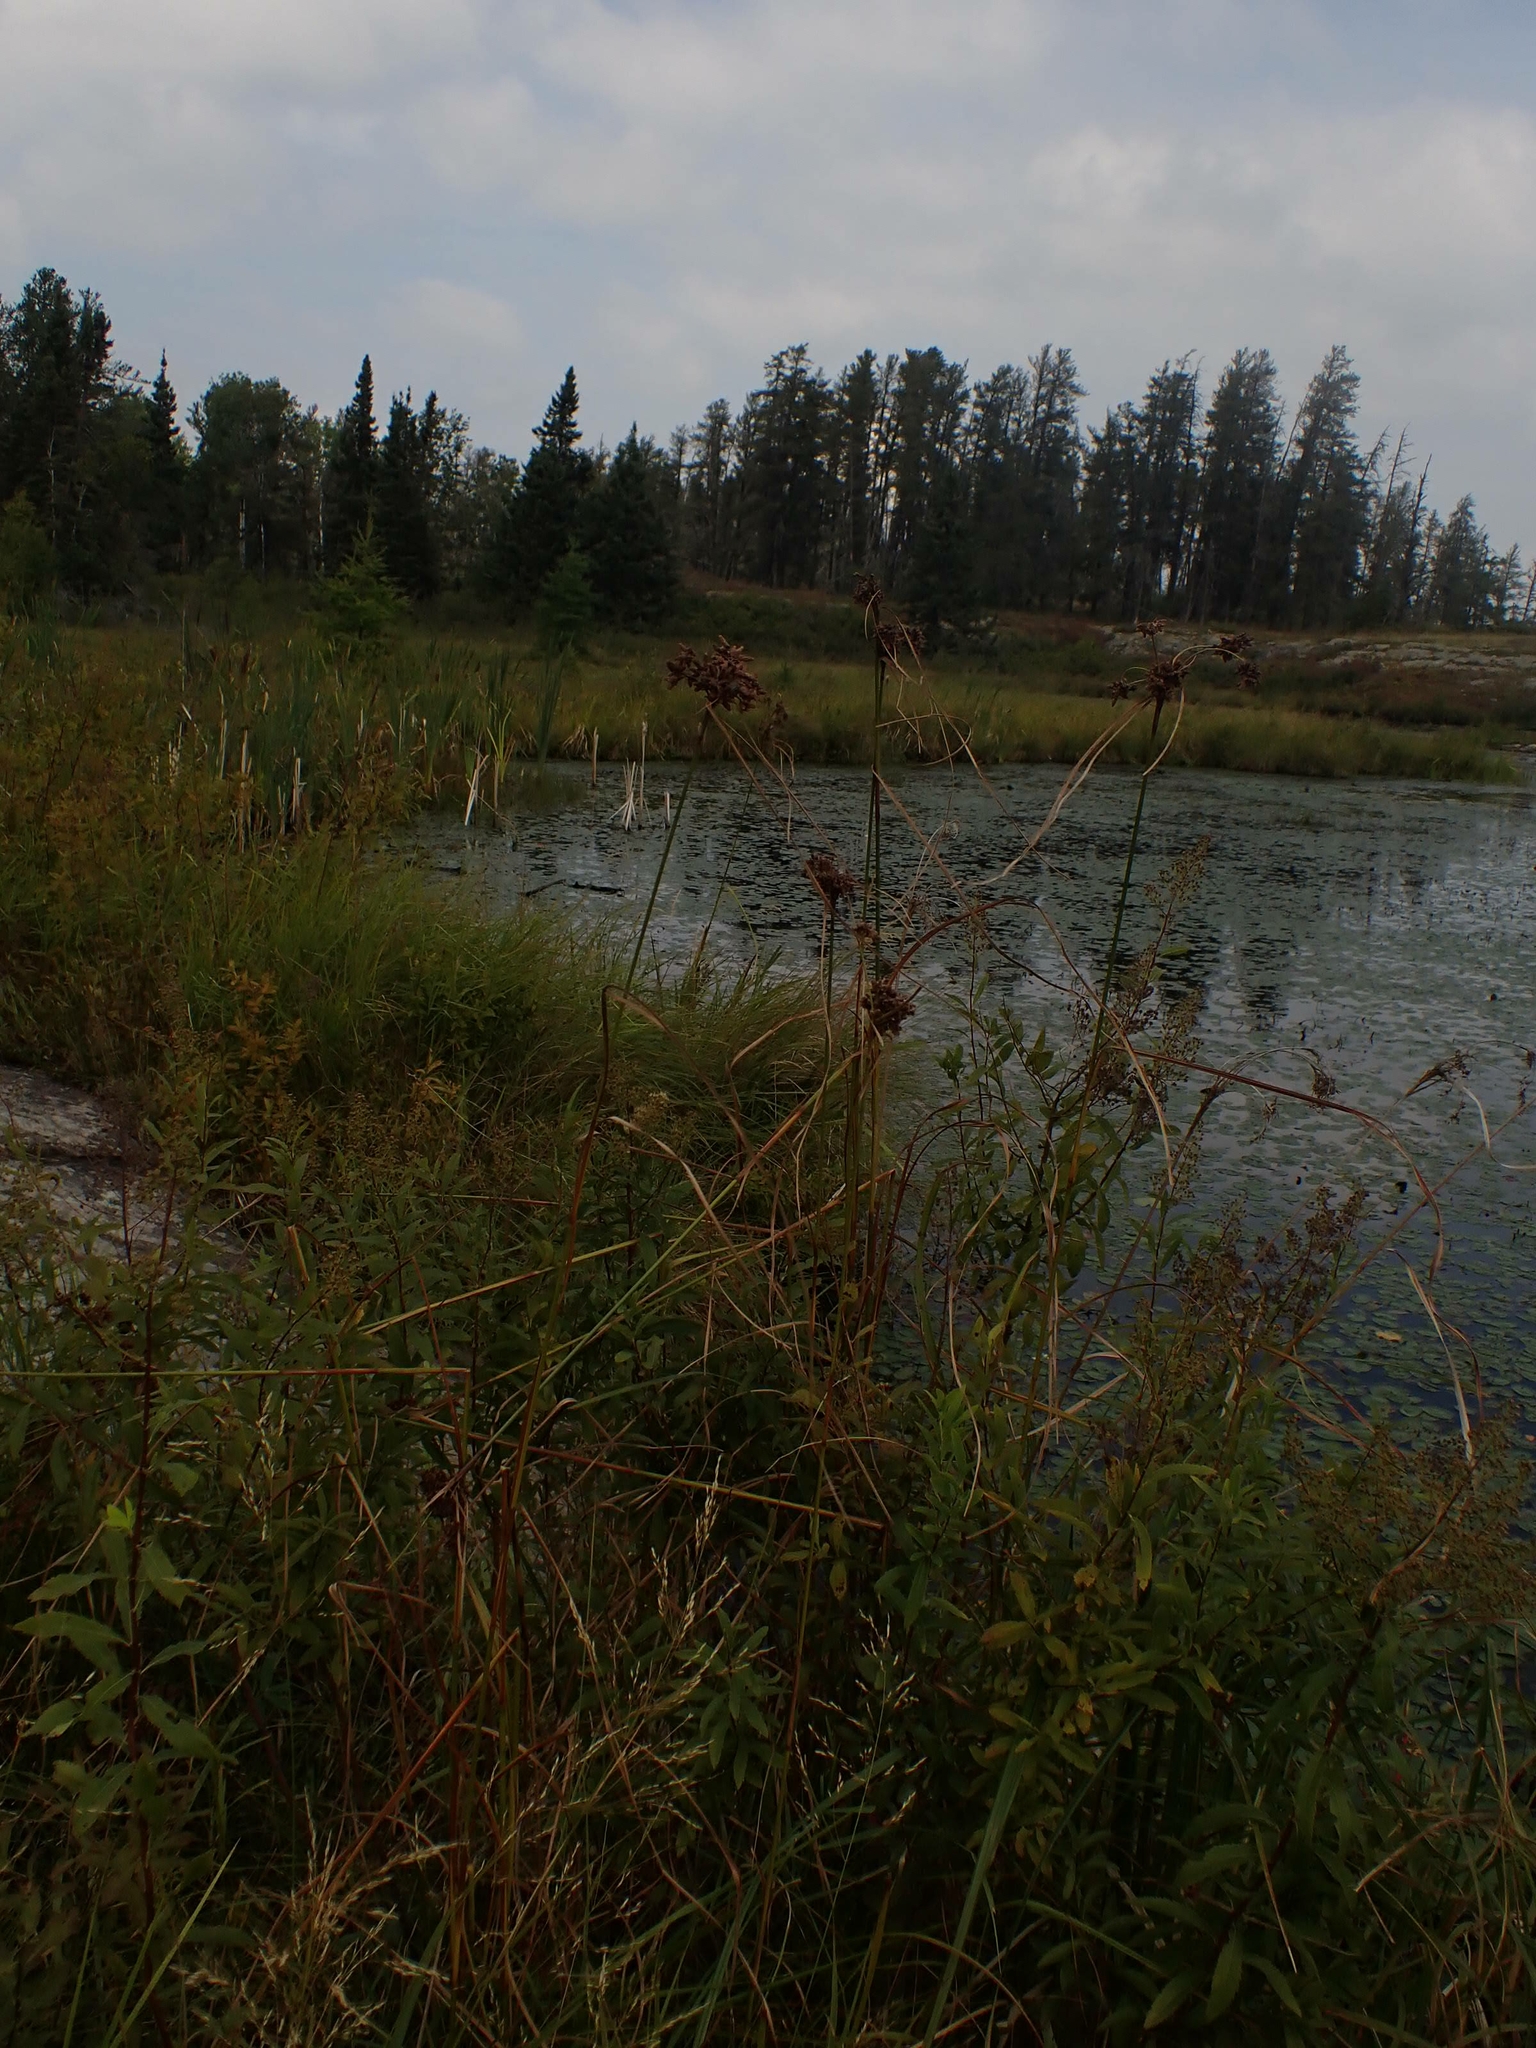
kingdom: Plantae
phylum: Tracheophyta
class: Liliopsida
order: Poales
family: Cyperaceae
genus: Scirpus
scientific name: Scirpus cyperinus
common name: Black-sheathed bulrush
